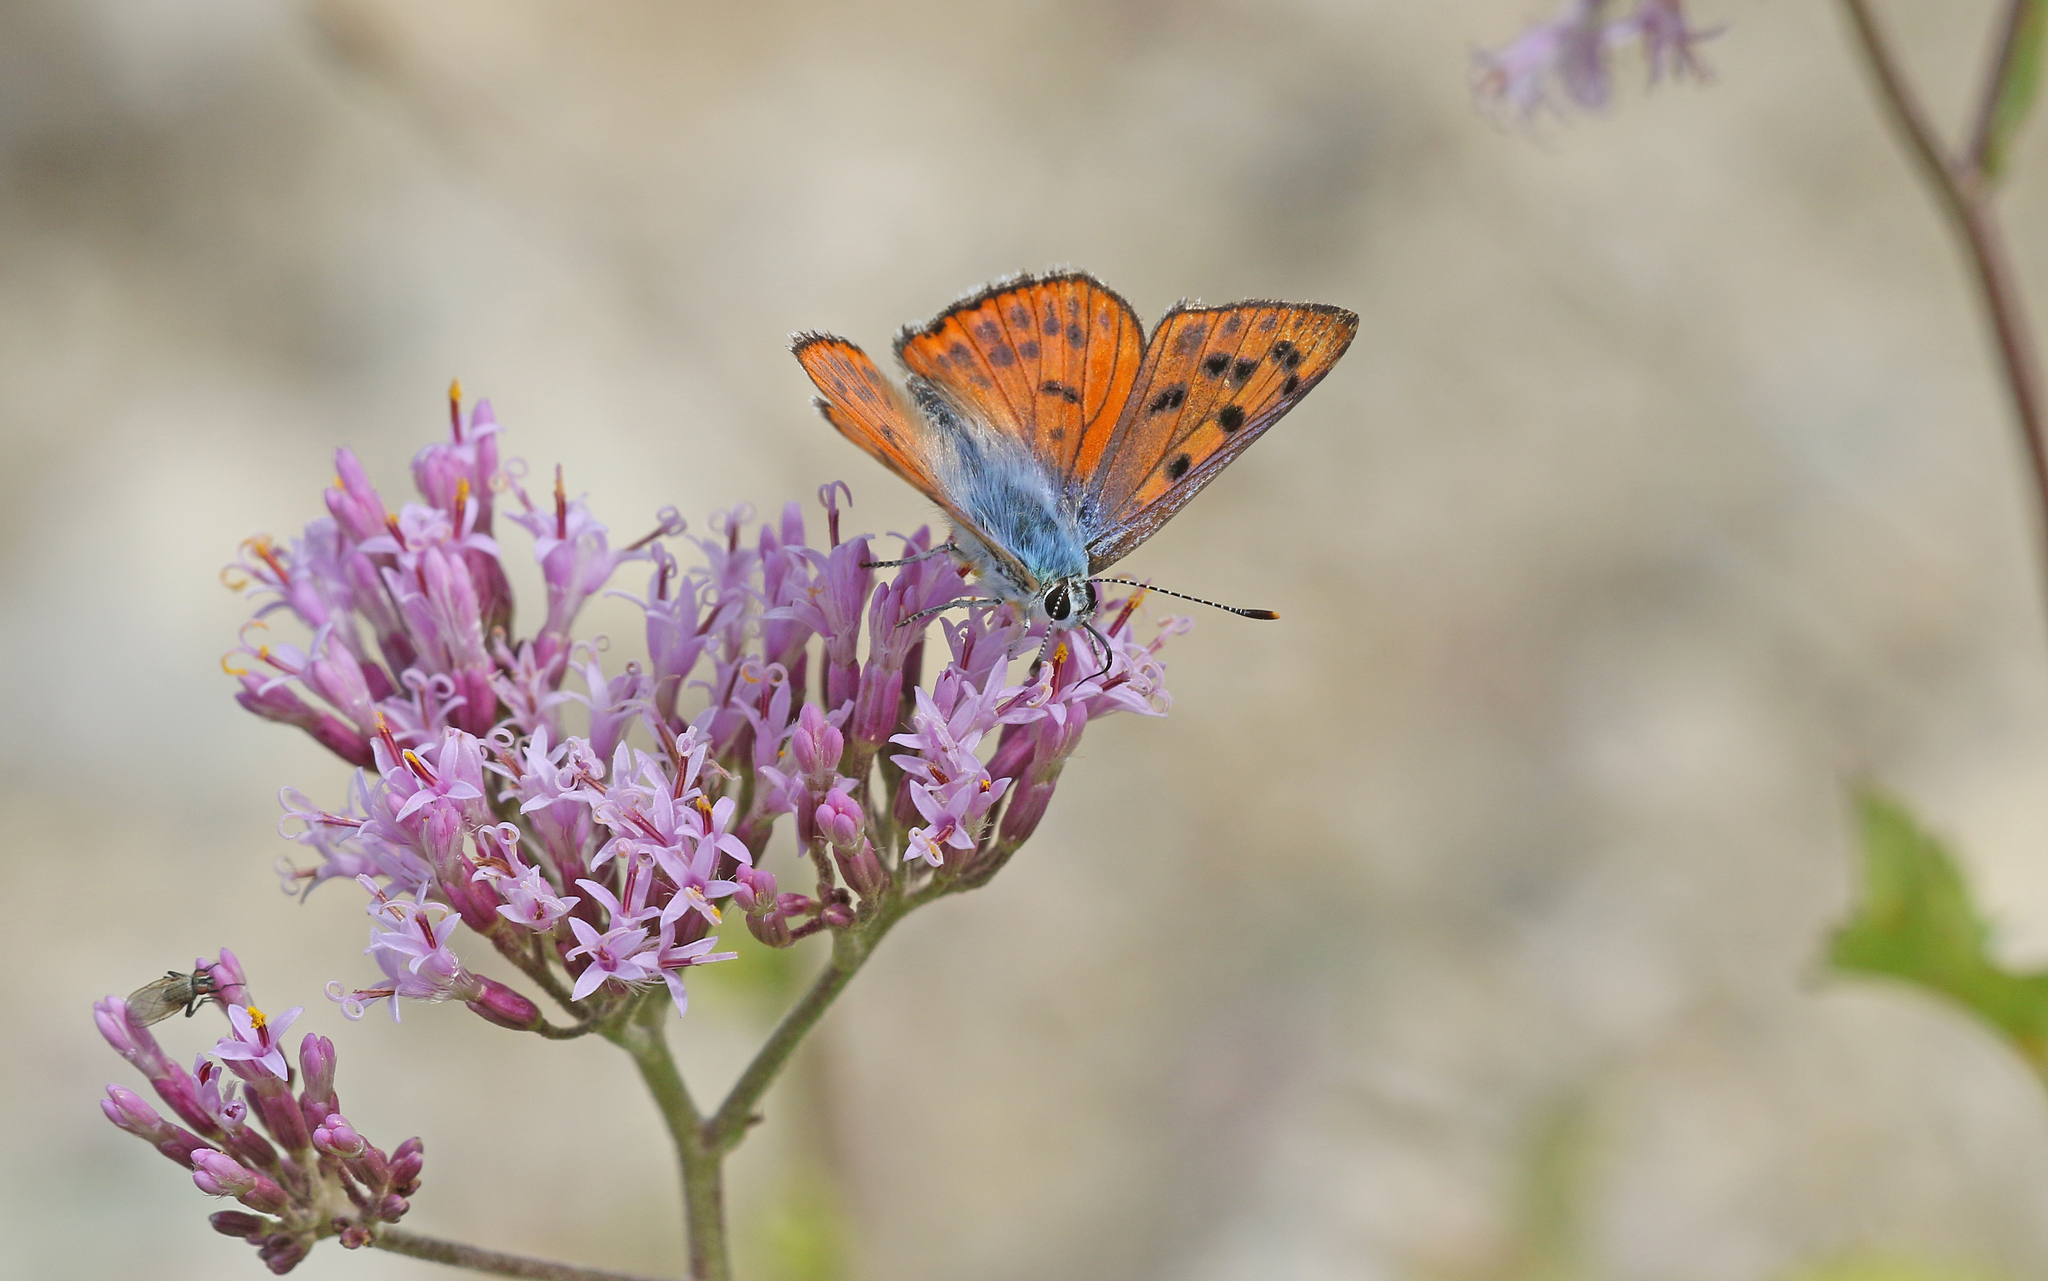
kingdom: Animalia
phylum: Arthropoda
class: Insecta
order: Lepidoptera
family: Lycaenidae
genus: Lycaena
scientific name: Lycaena alciphron
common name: Purple-shot copper
